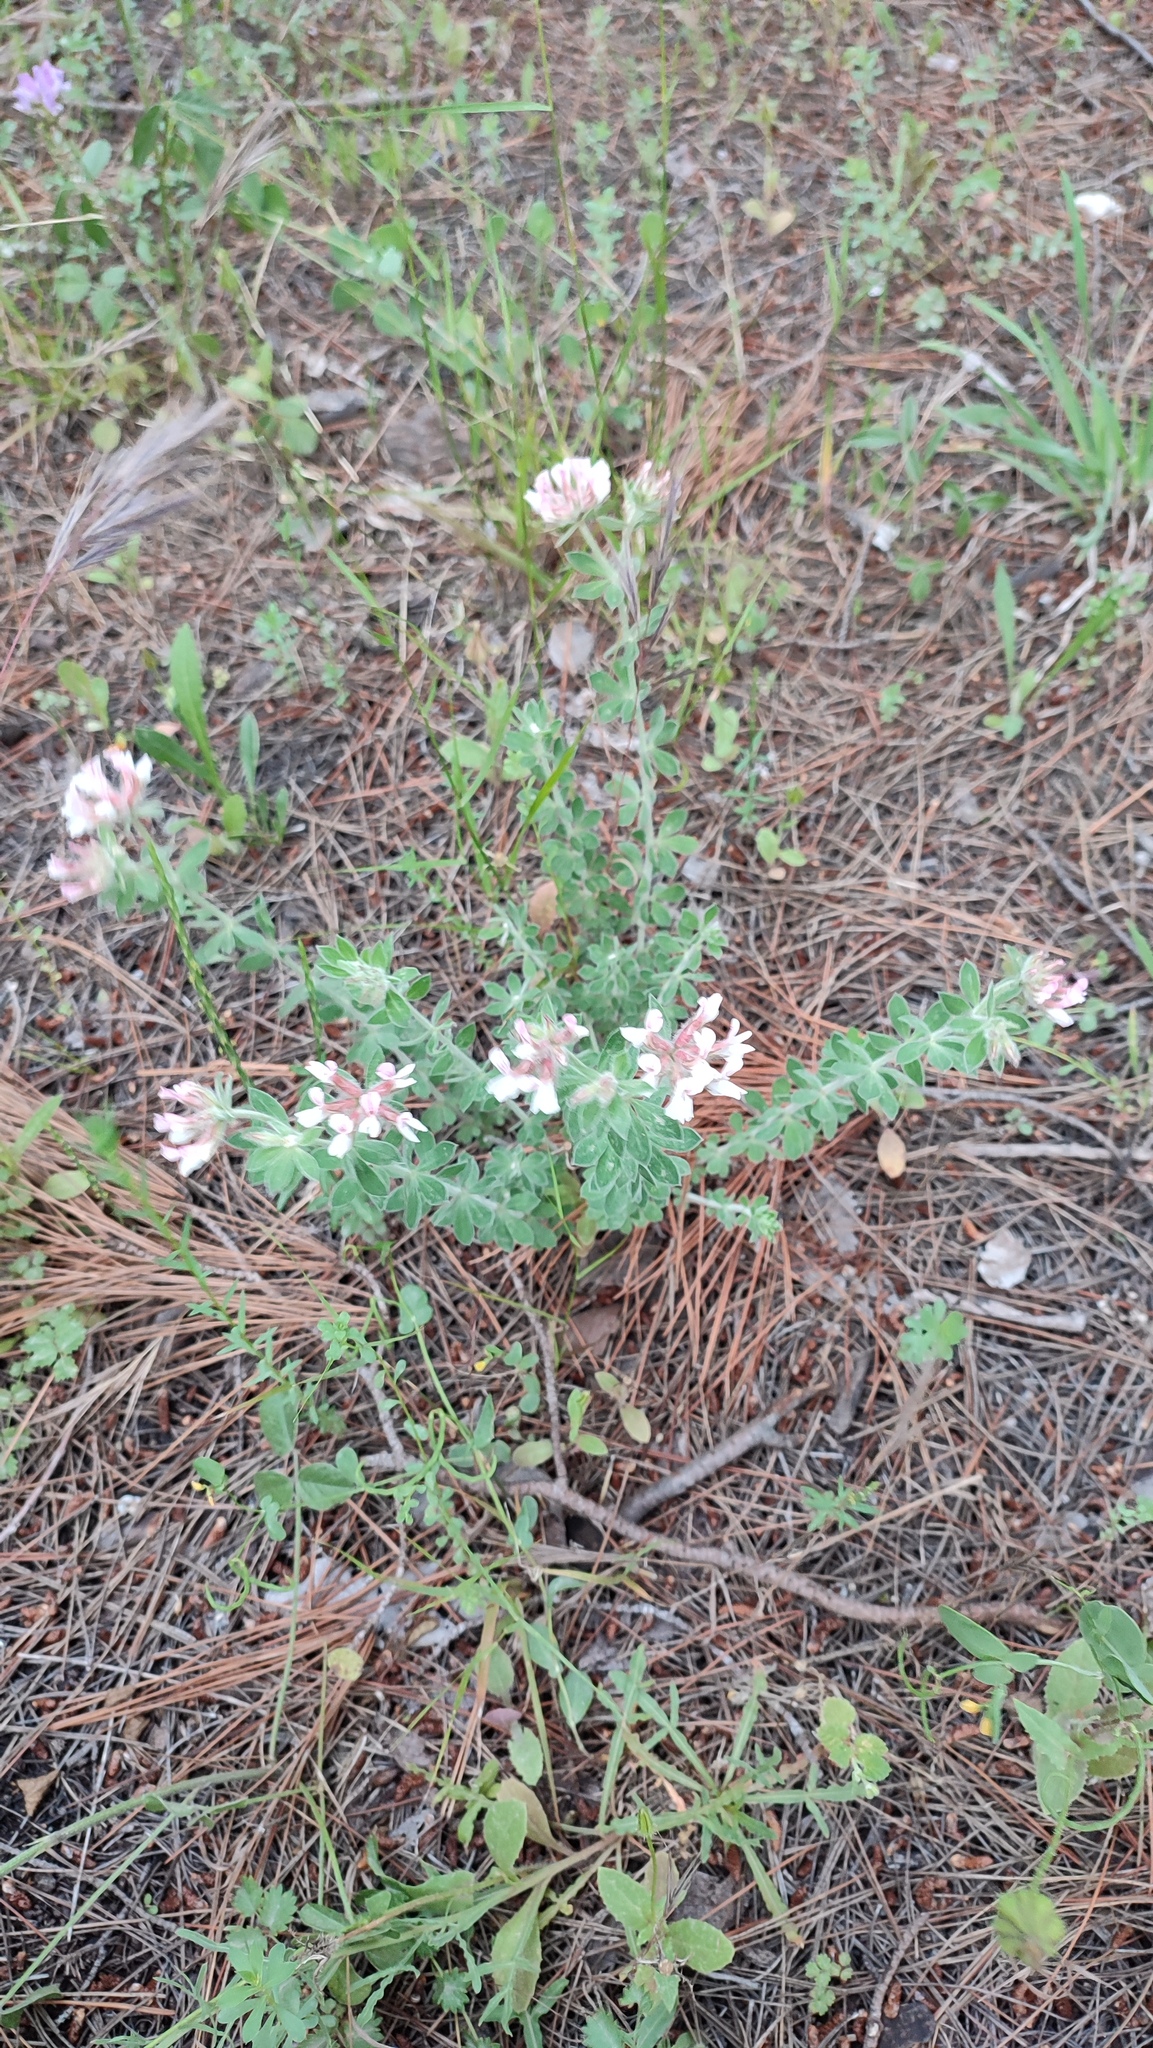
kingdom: Plantae
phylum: Tracheophyta
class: Magnoliopsida
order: Fabales
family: Fabaceae
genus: Lotus
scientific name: Lotus hirsutus
